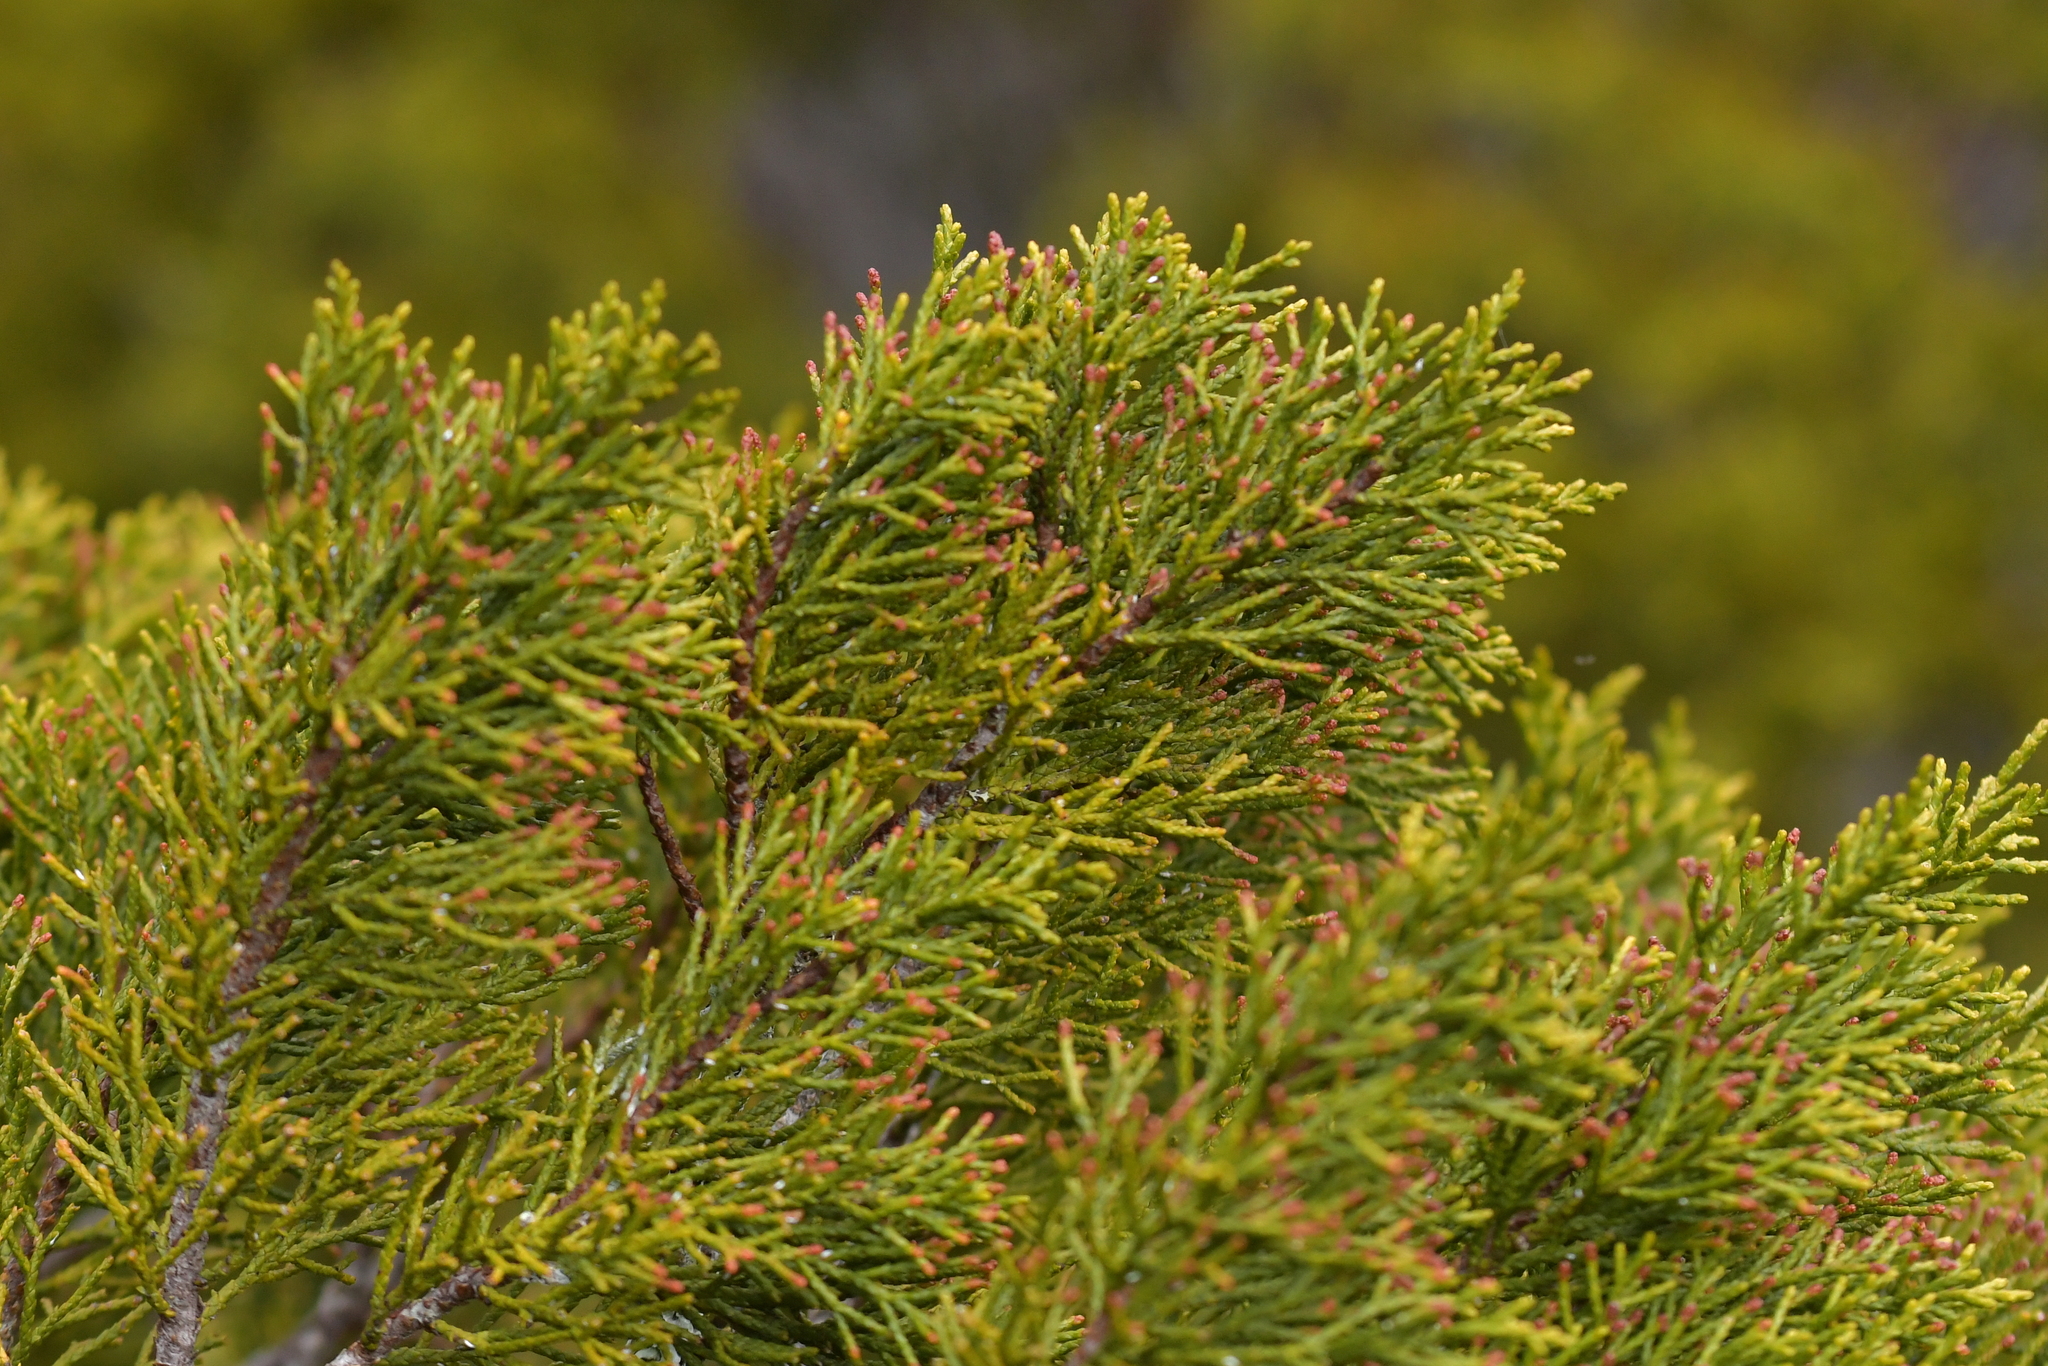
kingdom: Plantae
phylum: Tracheophyta
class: Pinopsida
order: Pinales
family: Podocarpaceae
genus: Halocarpus
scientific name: Halocarpus bidwillii
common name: Bog pine
